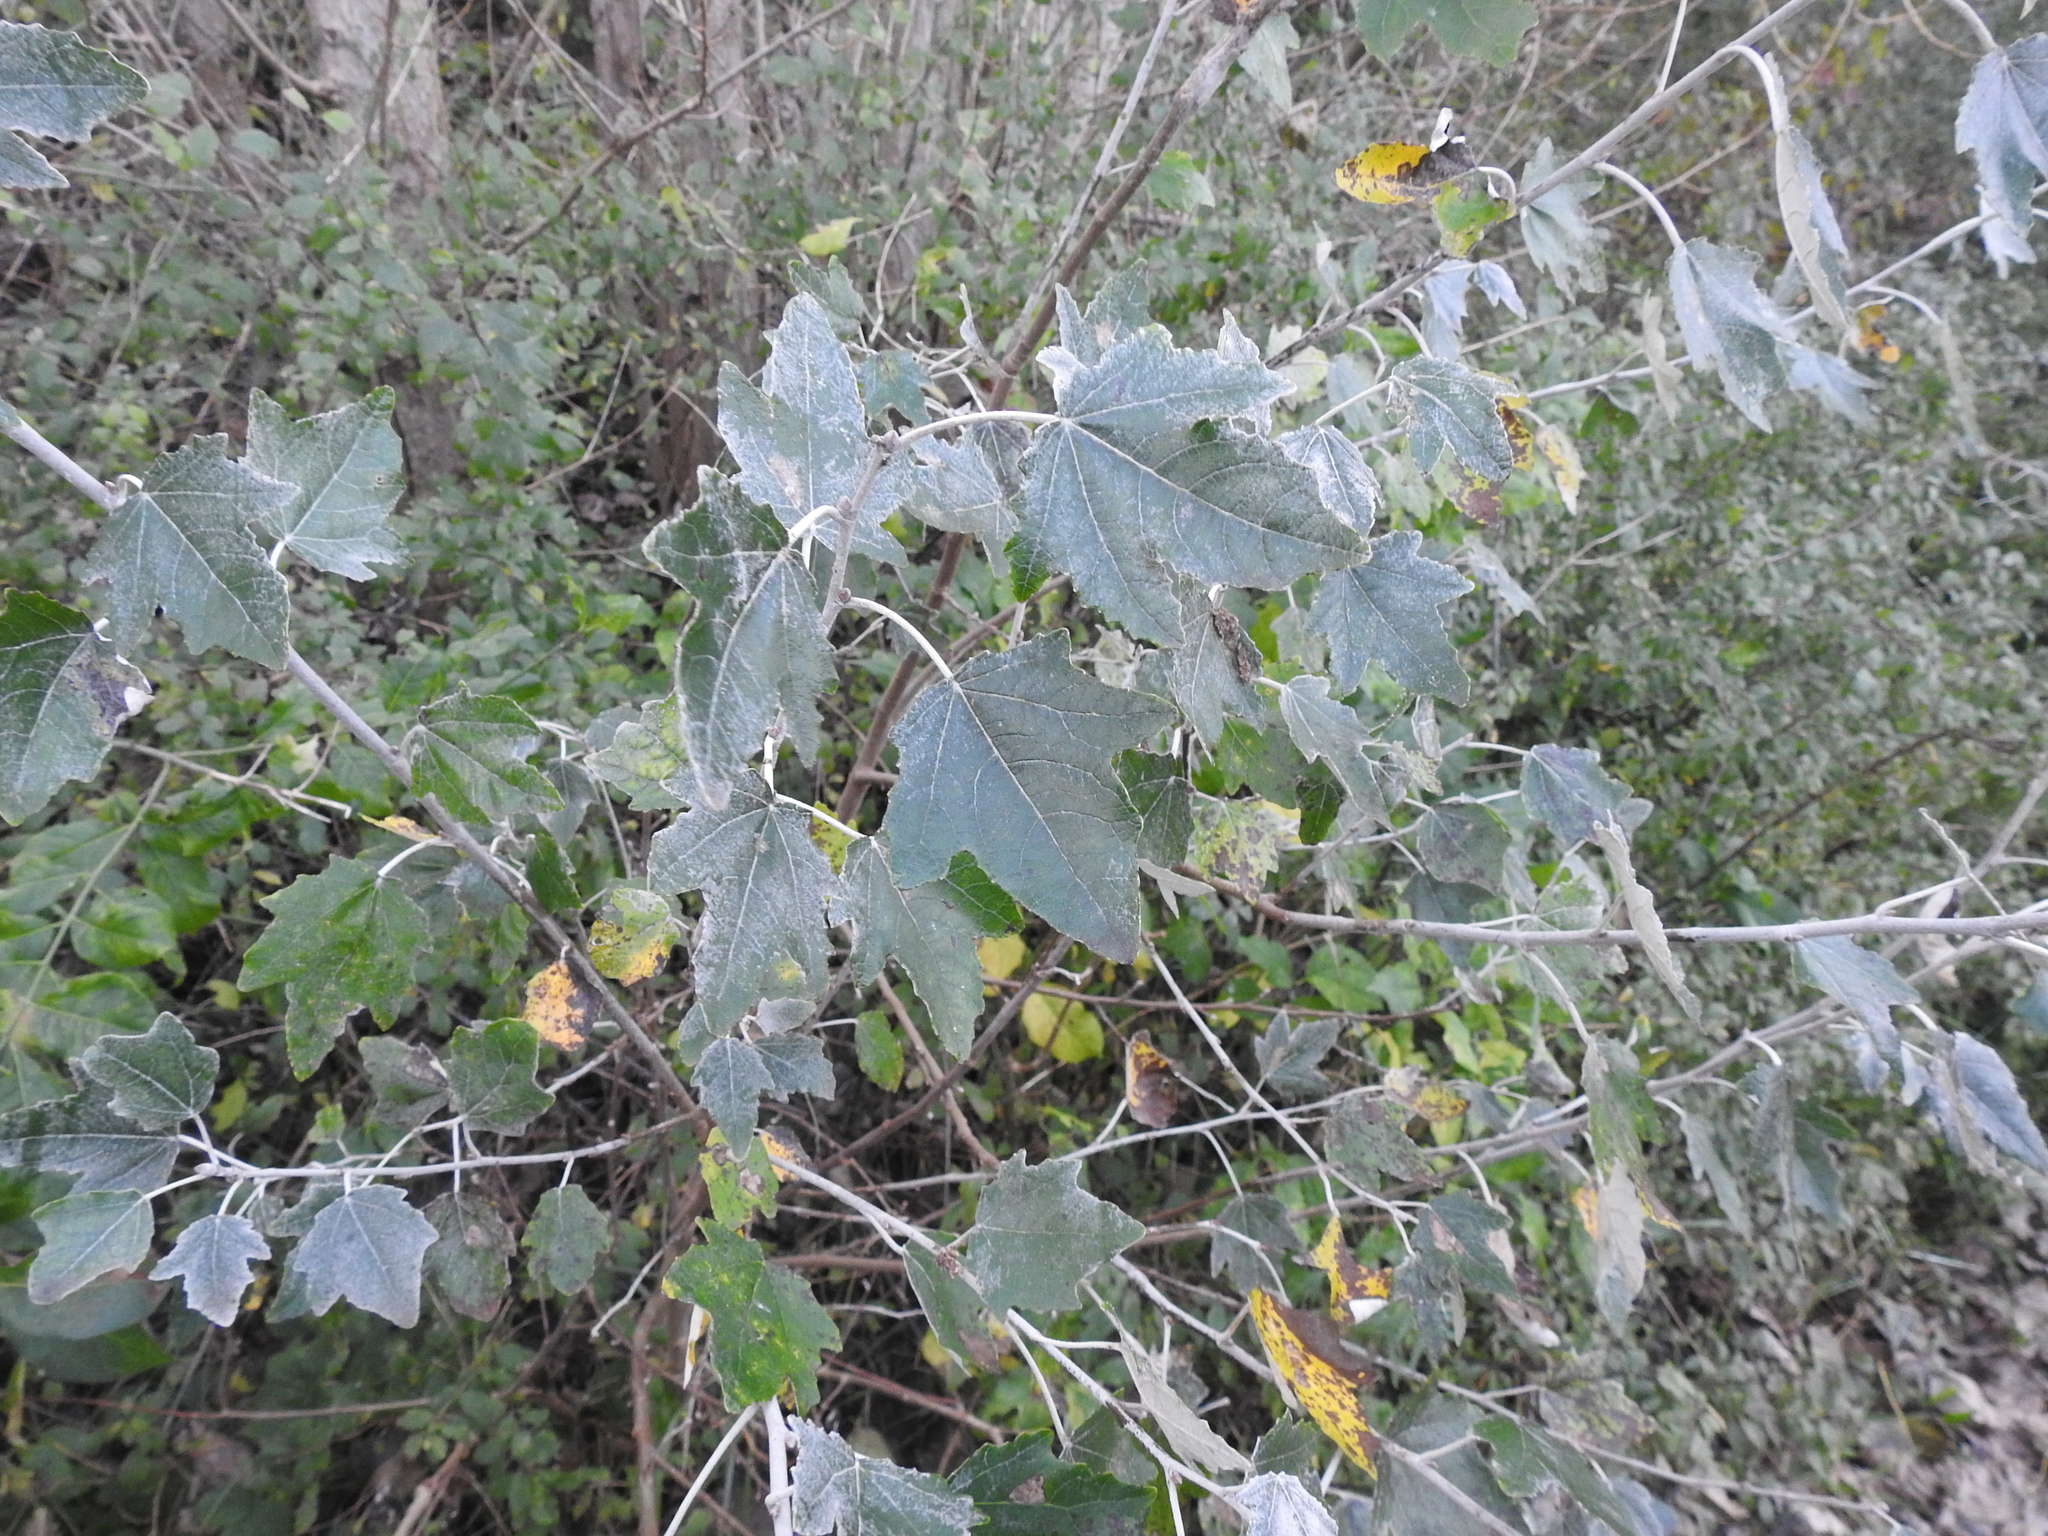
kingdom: Plantae
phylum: Tracheophyta
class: Magnoliopsida
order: Malpighiales
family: Salicaceae
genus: Populus
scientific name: Populus alba
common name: White poplar
